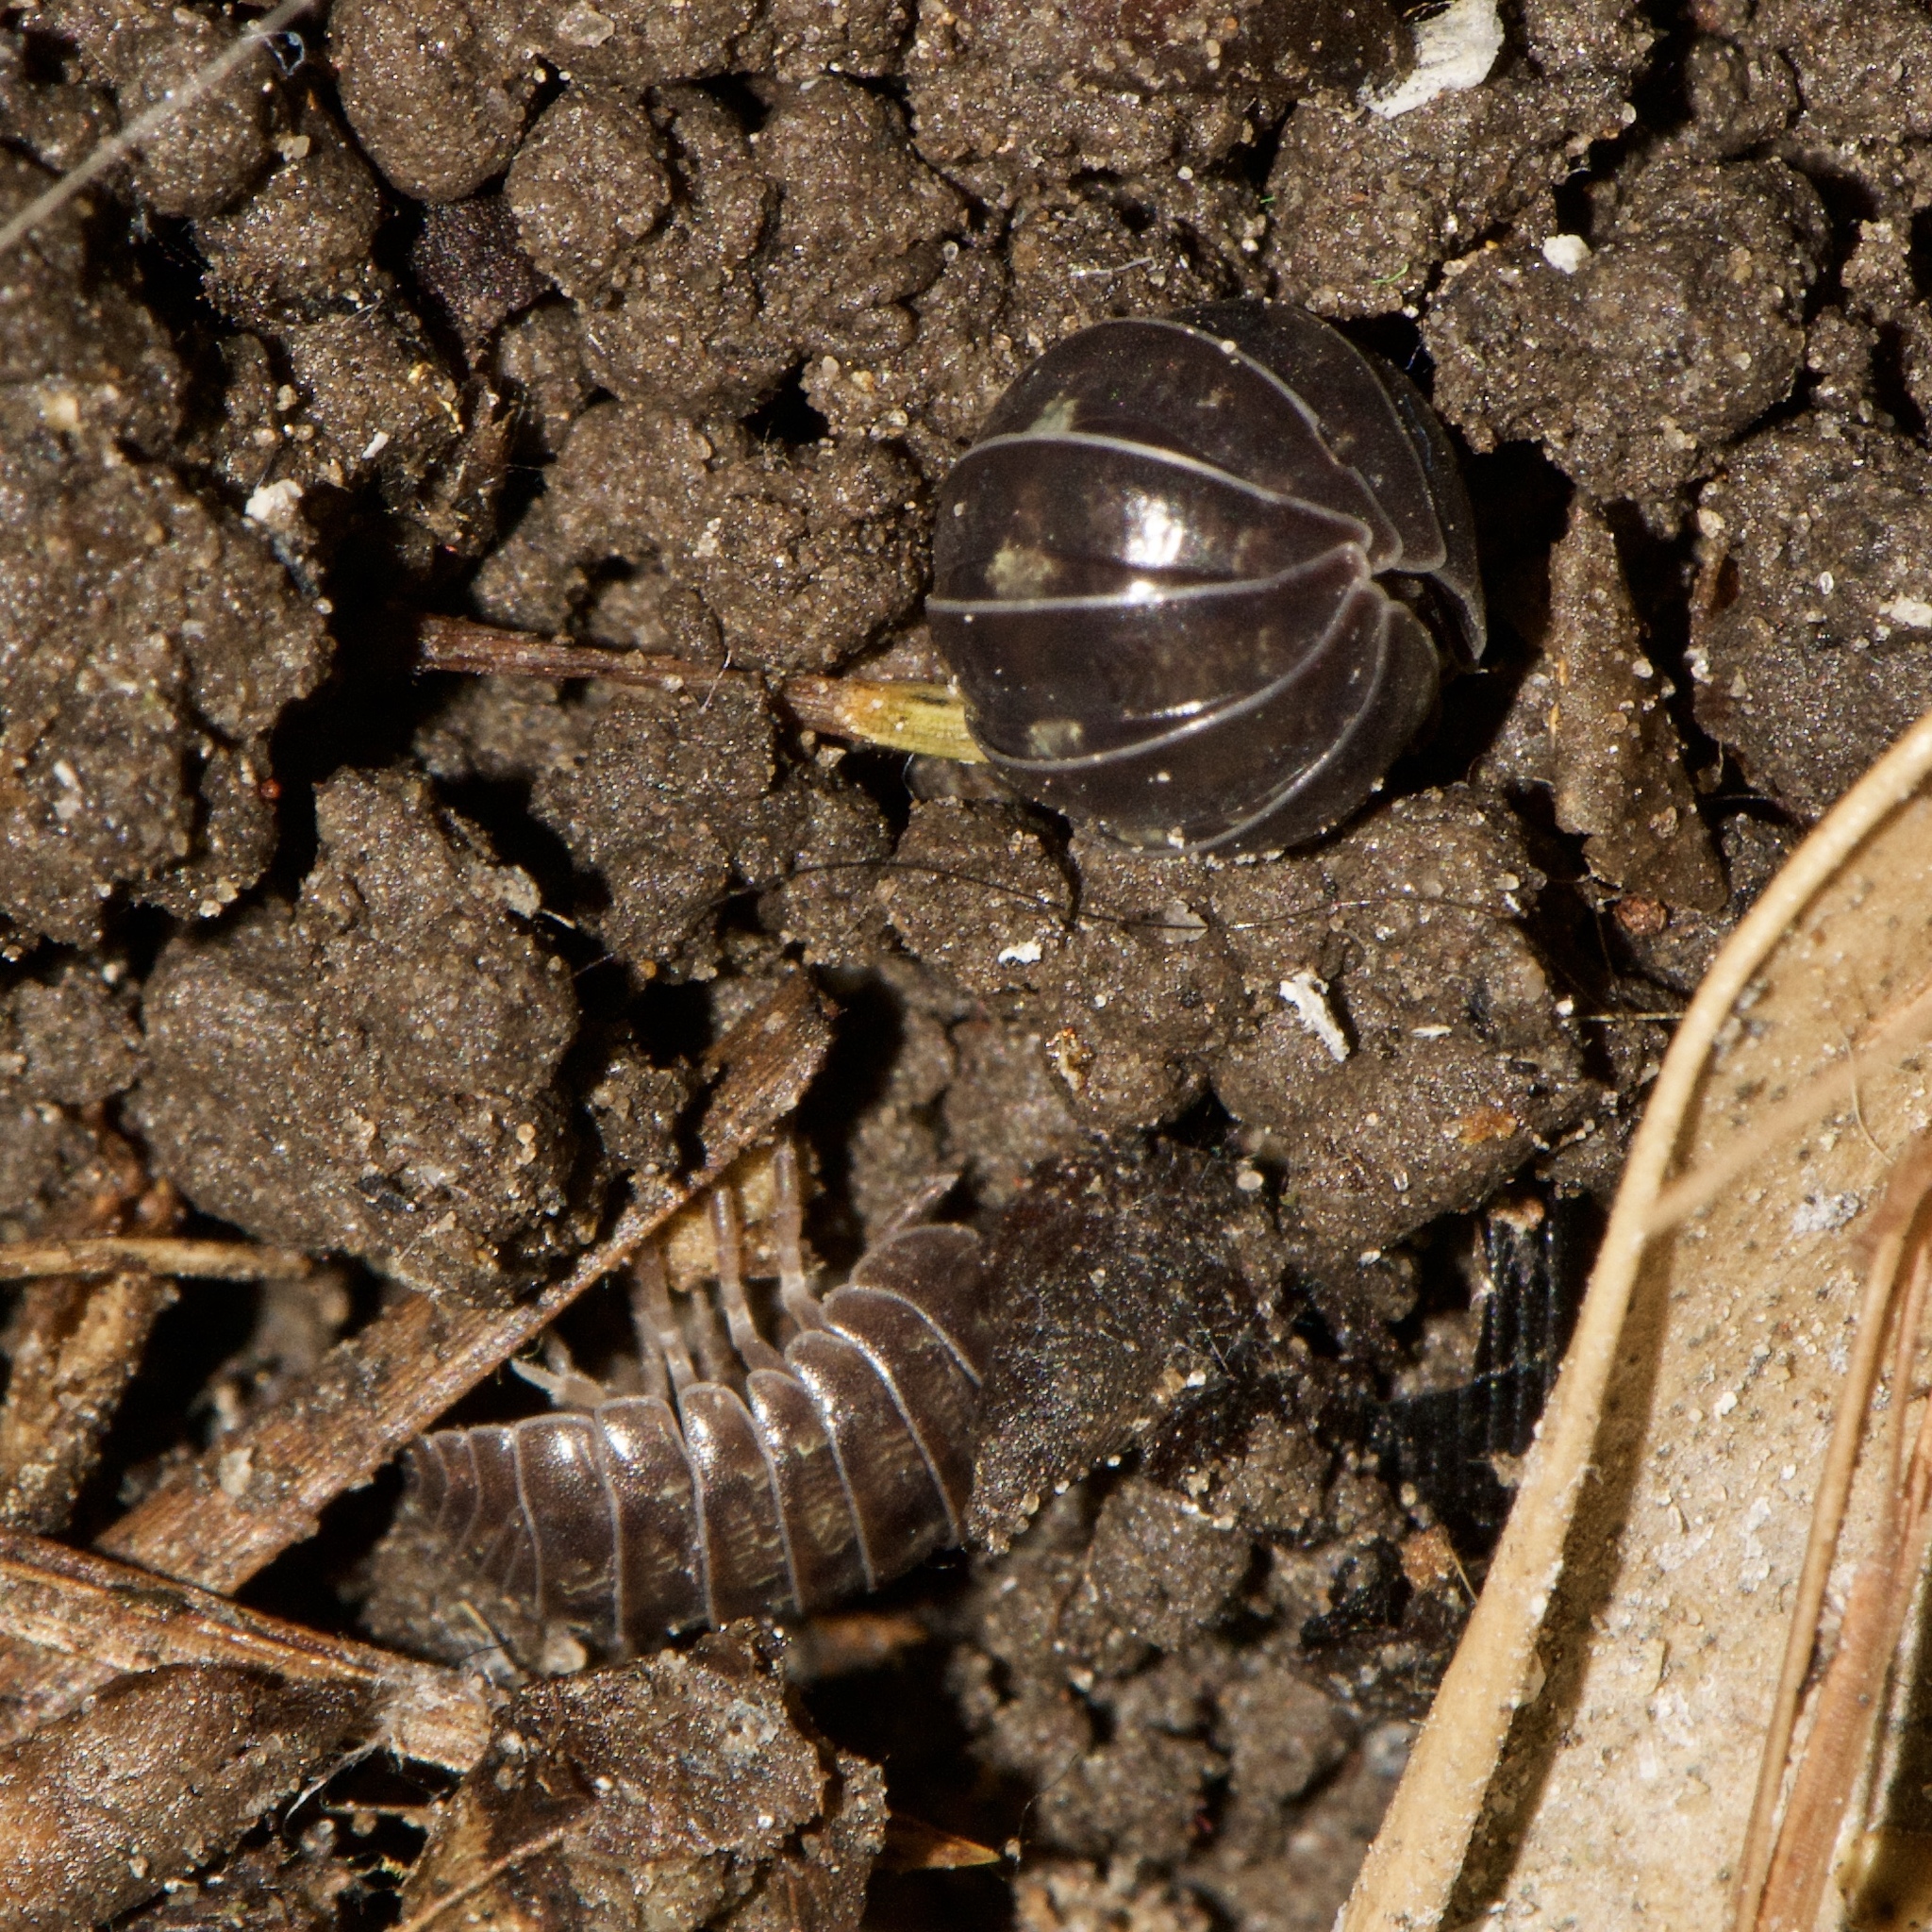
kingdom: Animalia
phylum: Arthropoda
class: Malacostraca
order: Isopoda
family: Armadillidiidae
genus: Armadillidium
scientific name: Armadillidium vulgare
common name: Common pill woodlouse
